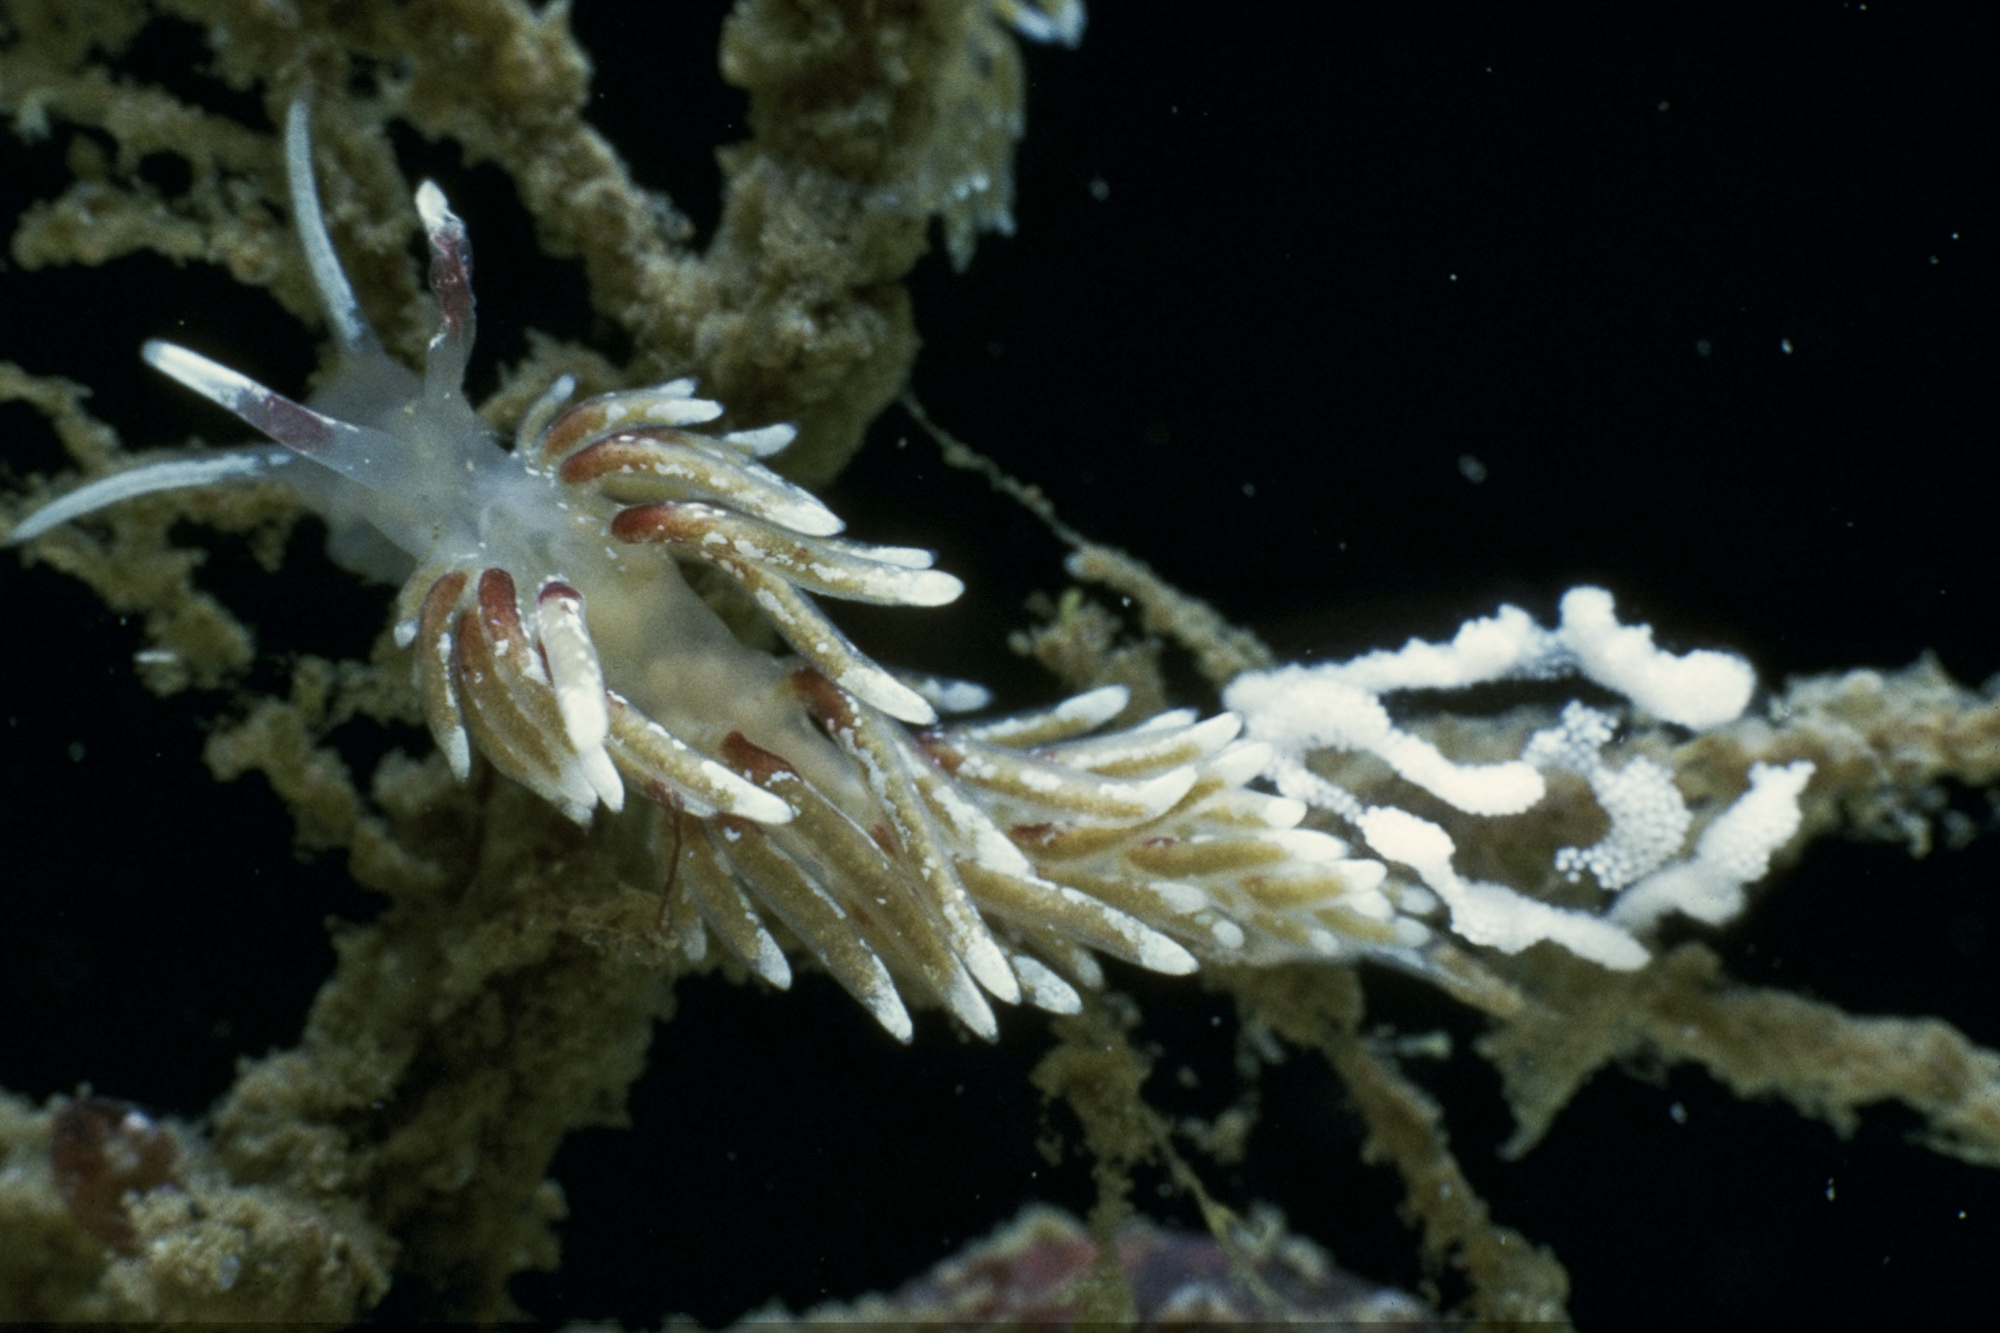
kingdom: Animalia
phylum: Mollusca
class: Gastropoda
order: Nudibranchia
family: Trinchesiidae
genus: Rubramoena
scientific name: Rubramoena rubescens
